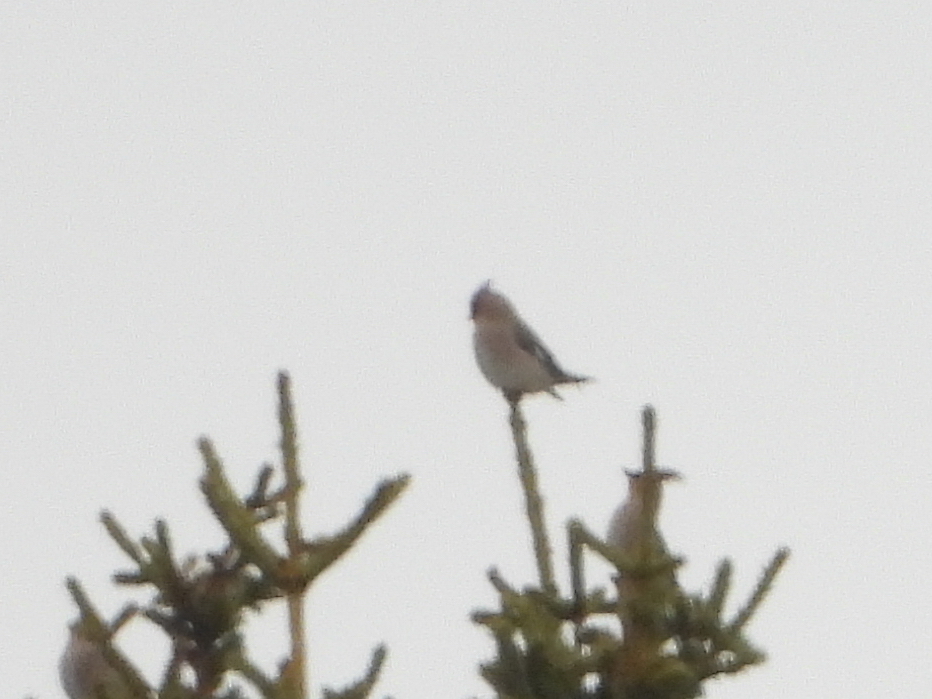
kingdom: Animalia
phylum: Chordata
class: Aves
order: Passeriformes
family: Bombycillidae
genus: Bombycilla
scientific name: Bombycilla garrulus
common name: Bohemian waxwing
